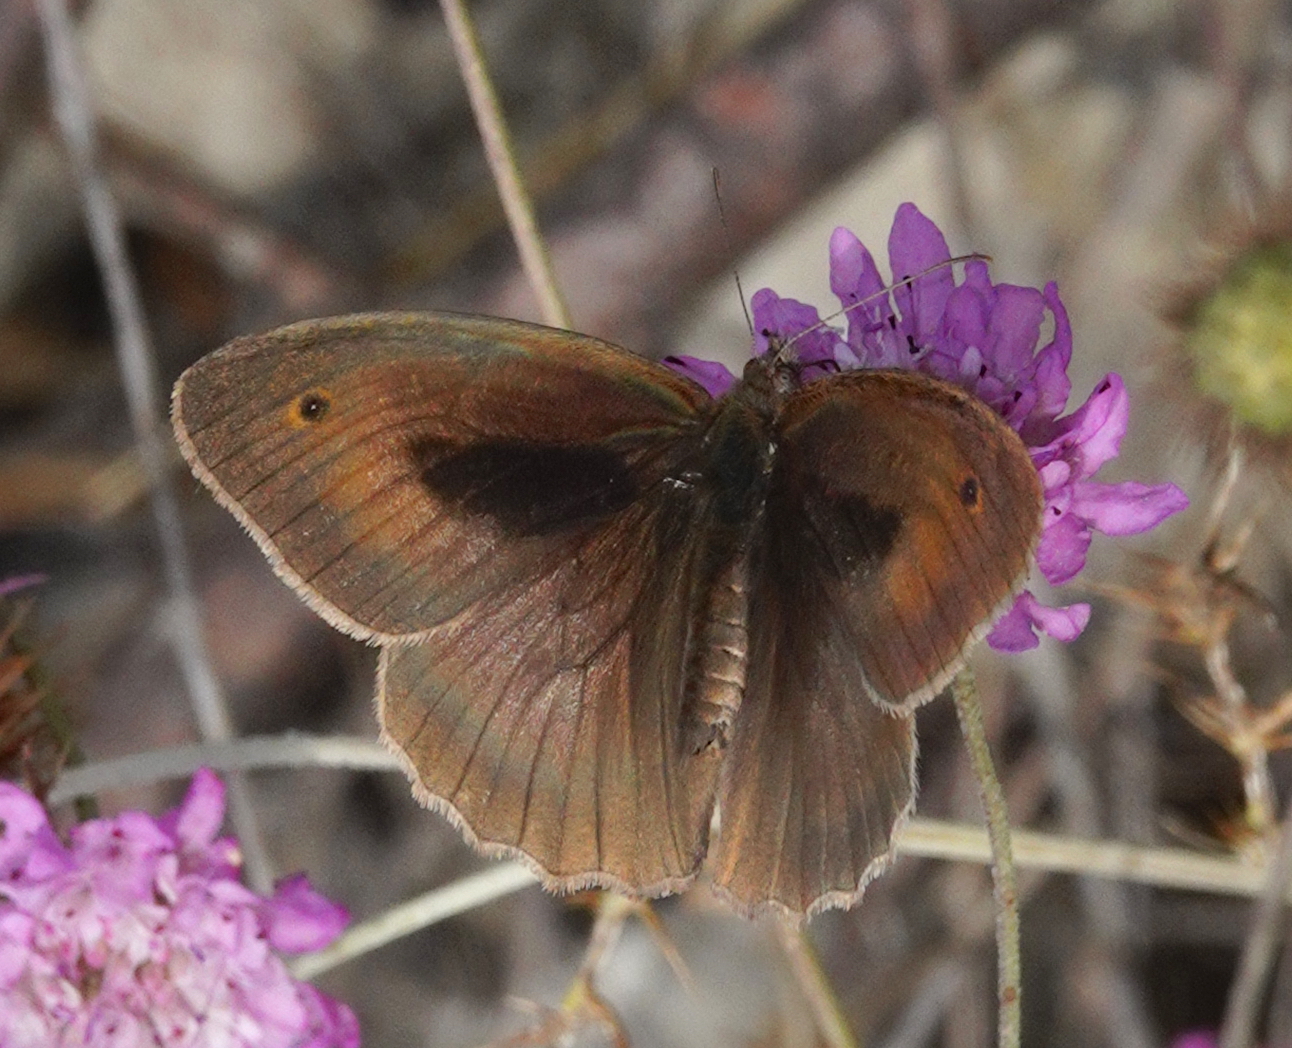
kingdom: Animalia
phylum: Arthropoda
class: Insecta
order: Lepidoptera
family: Nymphalidae
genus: Maniola
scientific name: Maniola jurtina
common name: Meadow brown
